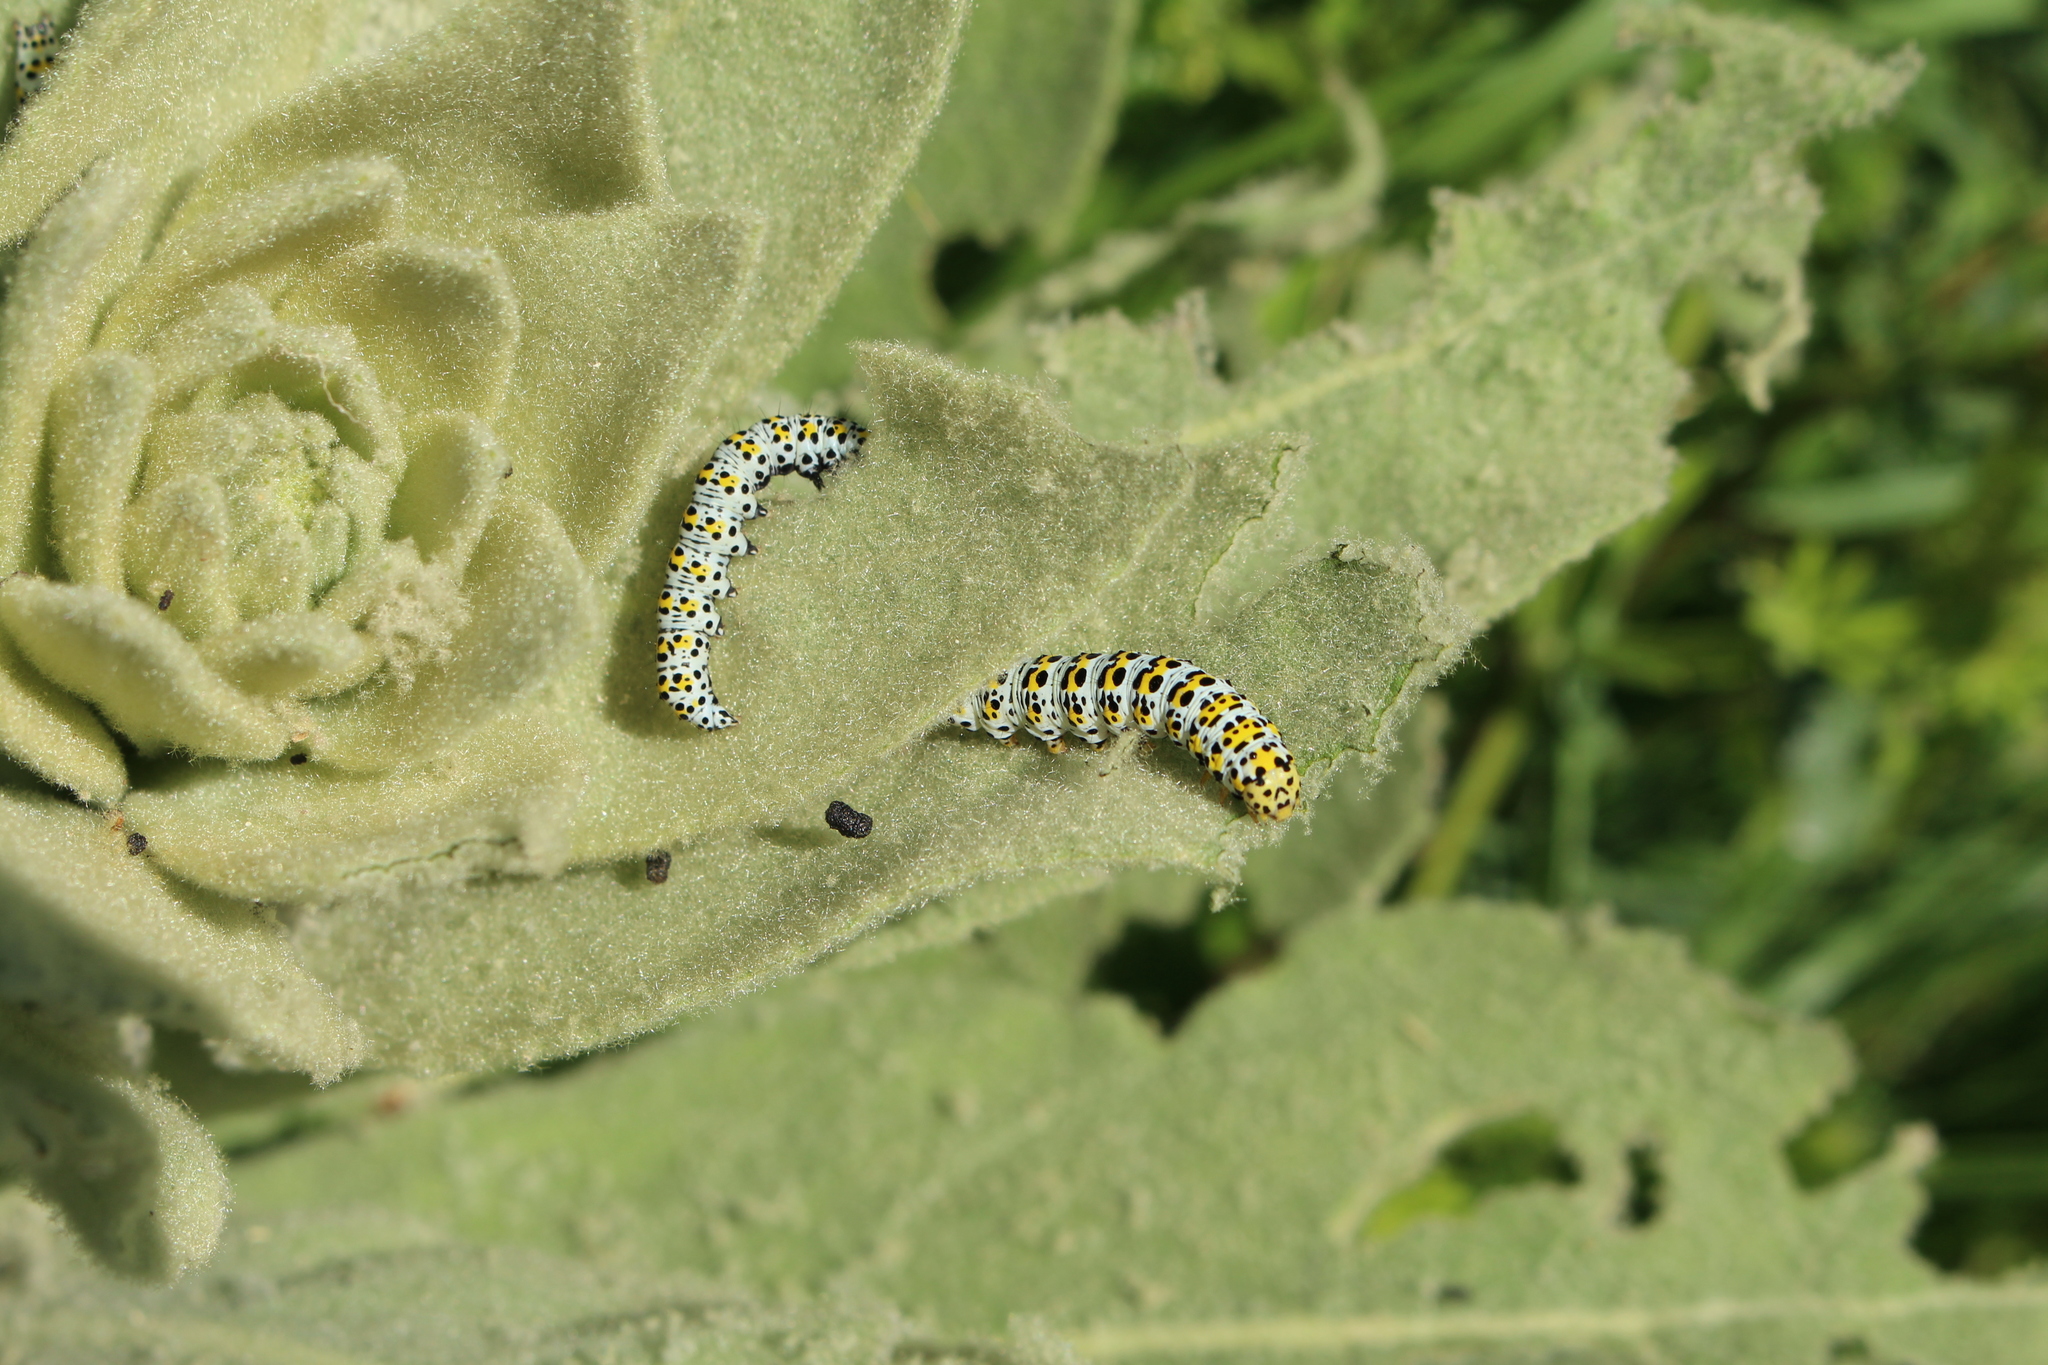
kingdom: Animalia
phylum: Arthropoda
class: Insecta
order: Lepidoptera
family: Noctuidae
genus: Cucullia
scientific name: Cucullia verbasci
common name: Mullein
